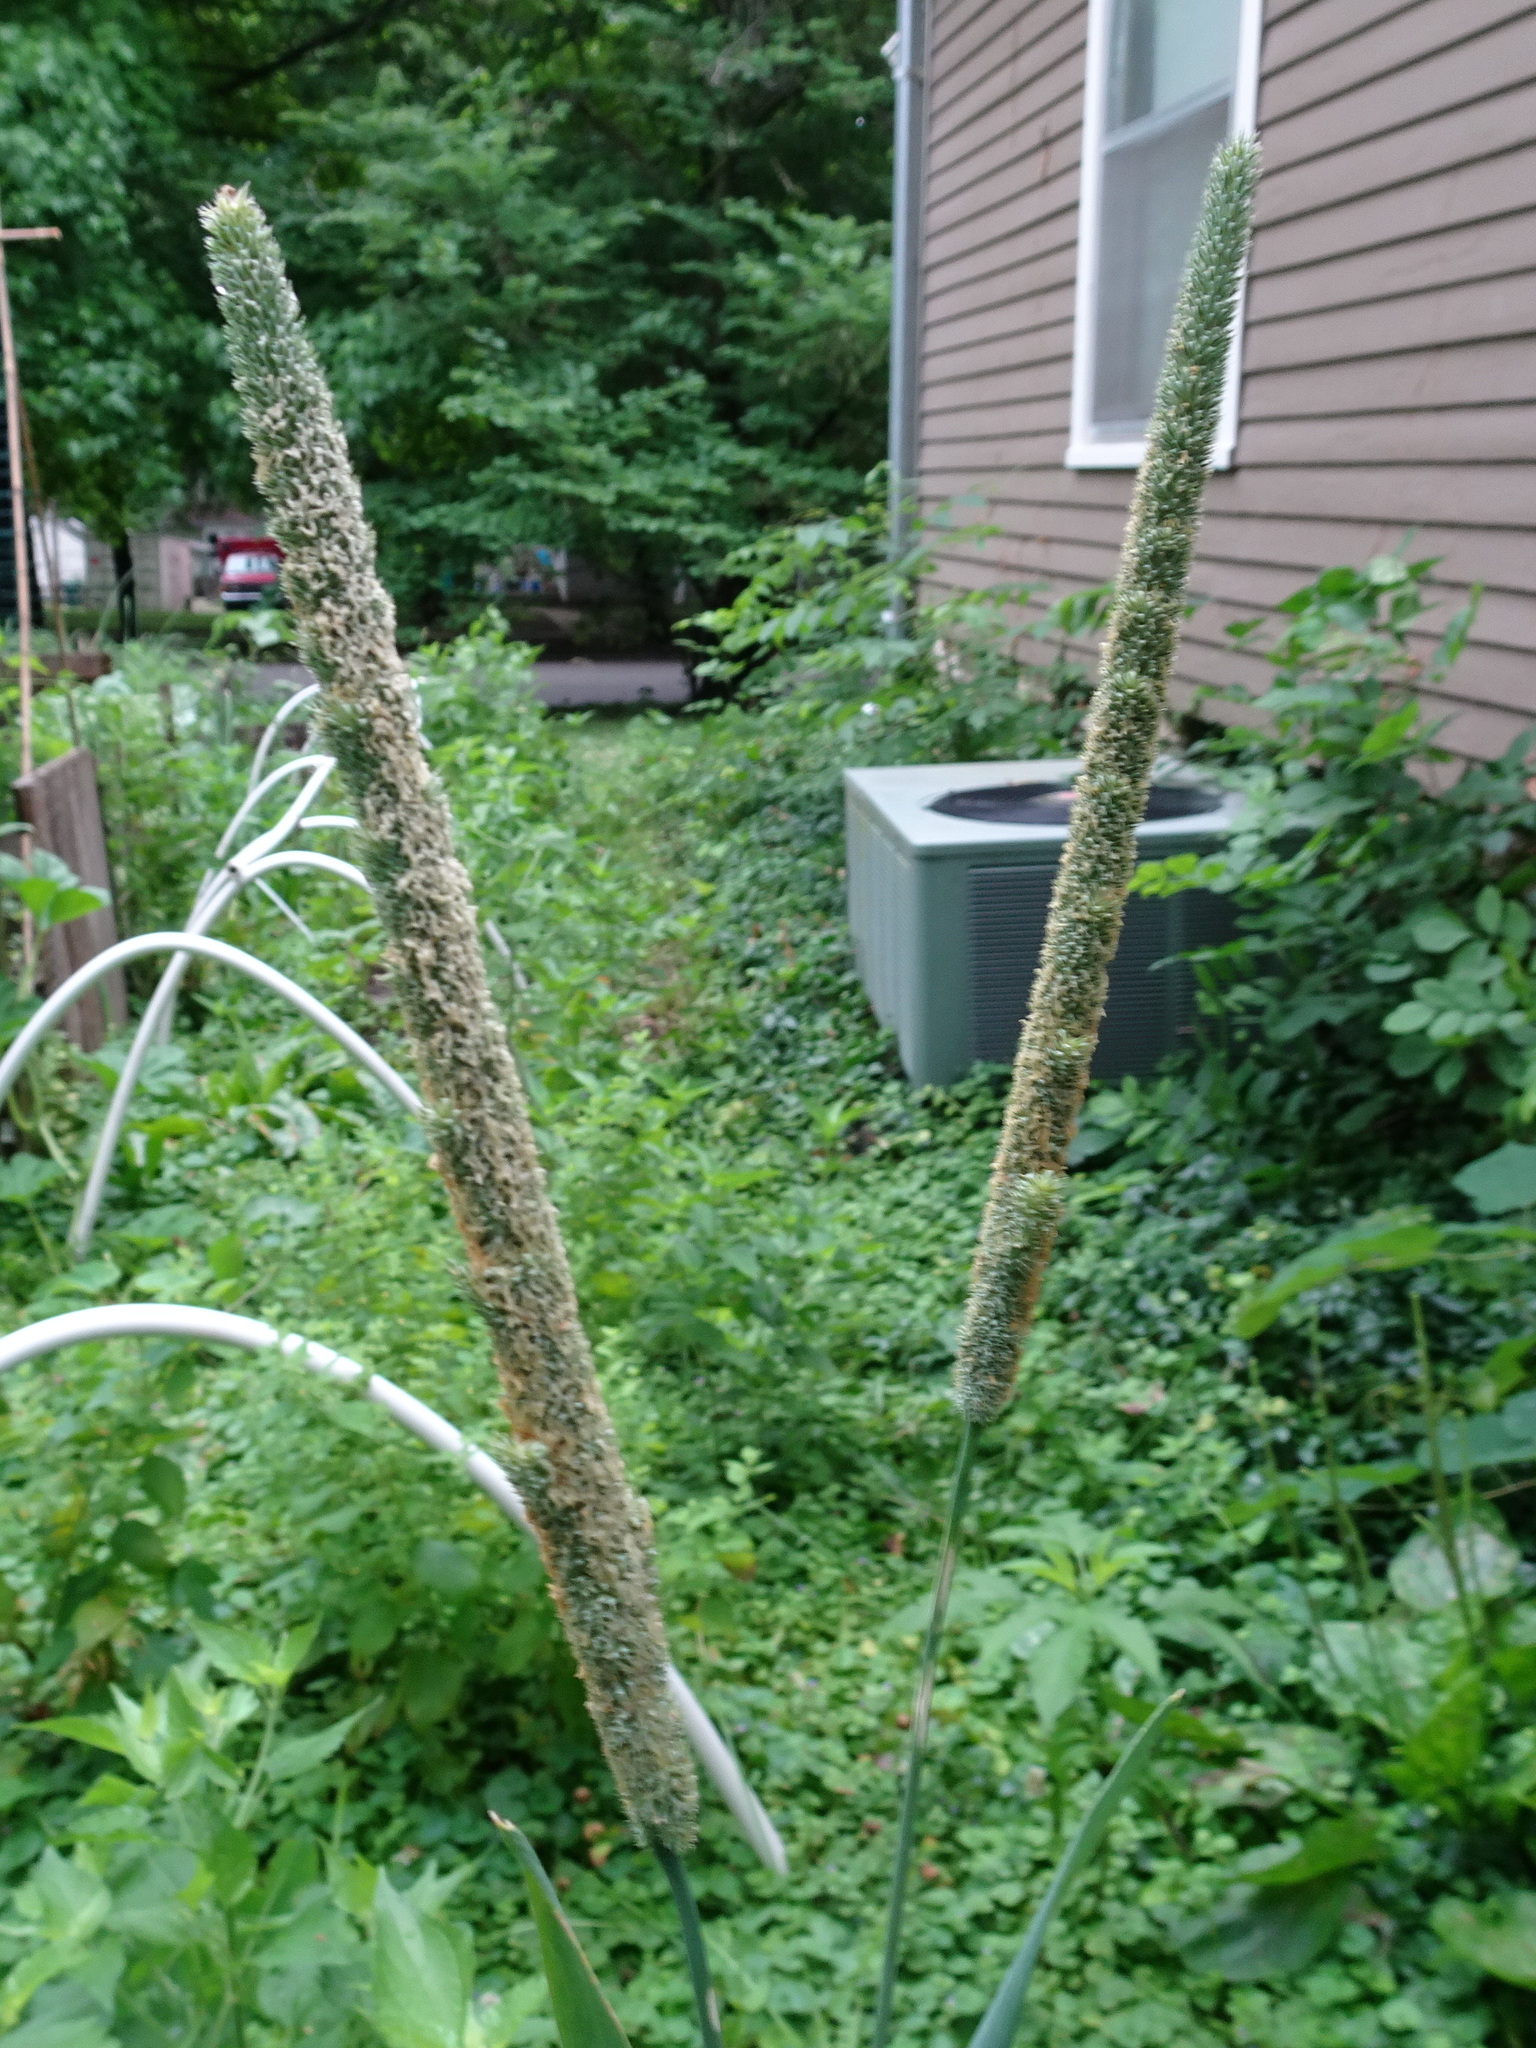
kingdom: Plantae
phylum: Tracheophyta
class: Liliopsida
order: Poales
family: Poaceae
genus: Phleum
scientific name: Phleum pratense
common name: Timothy grass
